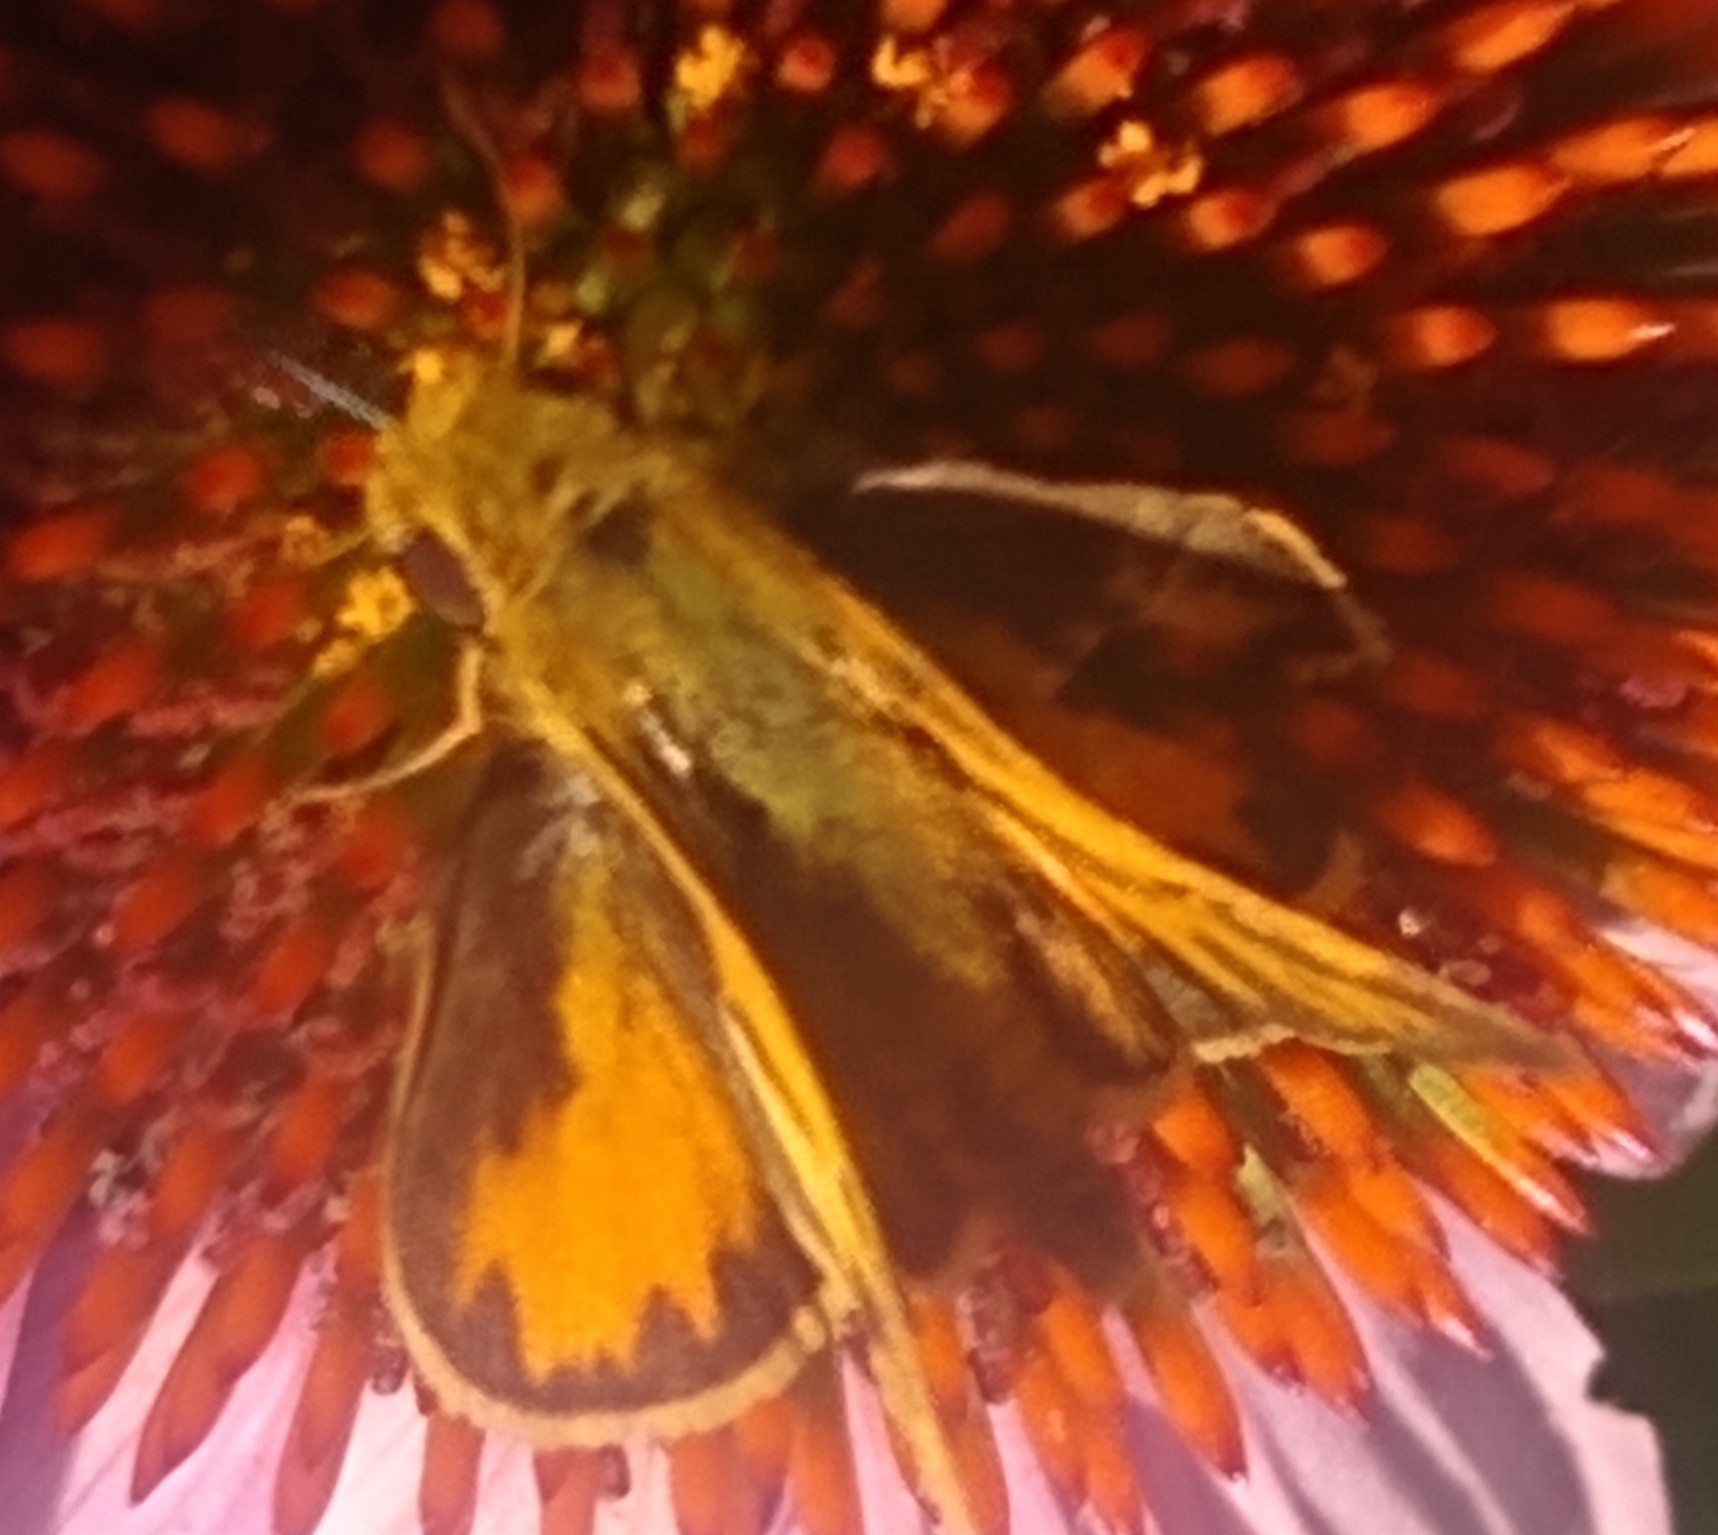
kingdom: Animalia
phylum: Arthropoda
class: Insecta
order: Lepidoptera
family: Hesperiidae
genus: Hylephila
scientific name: Hylephila phyleus
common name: Fiery skipper
